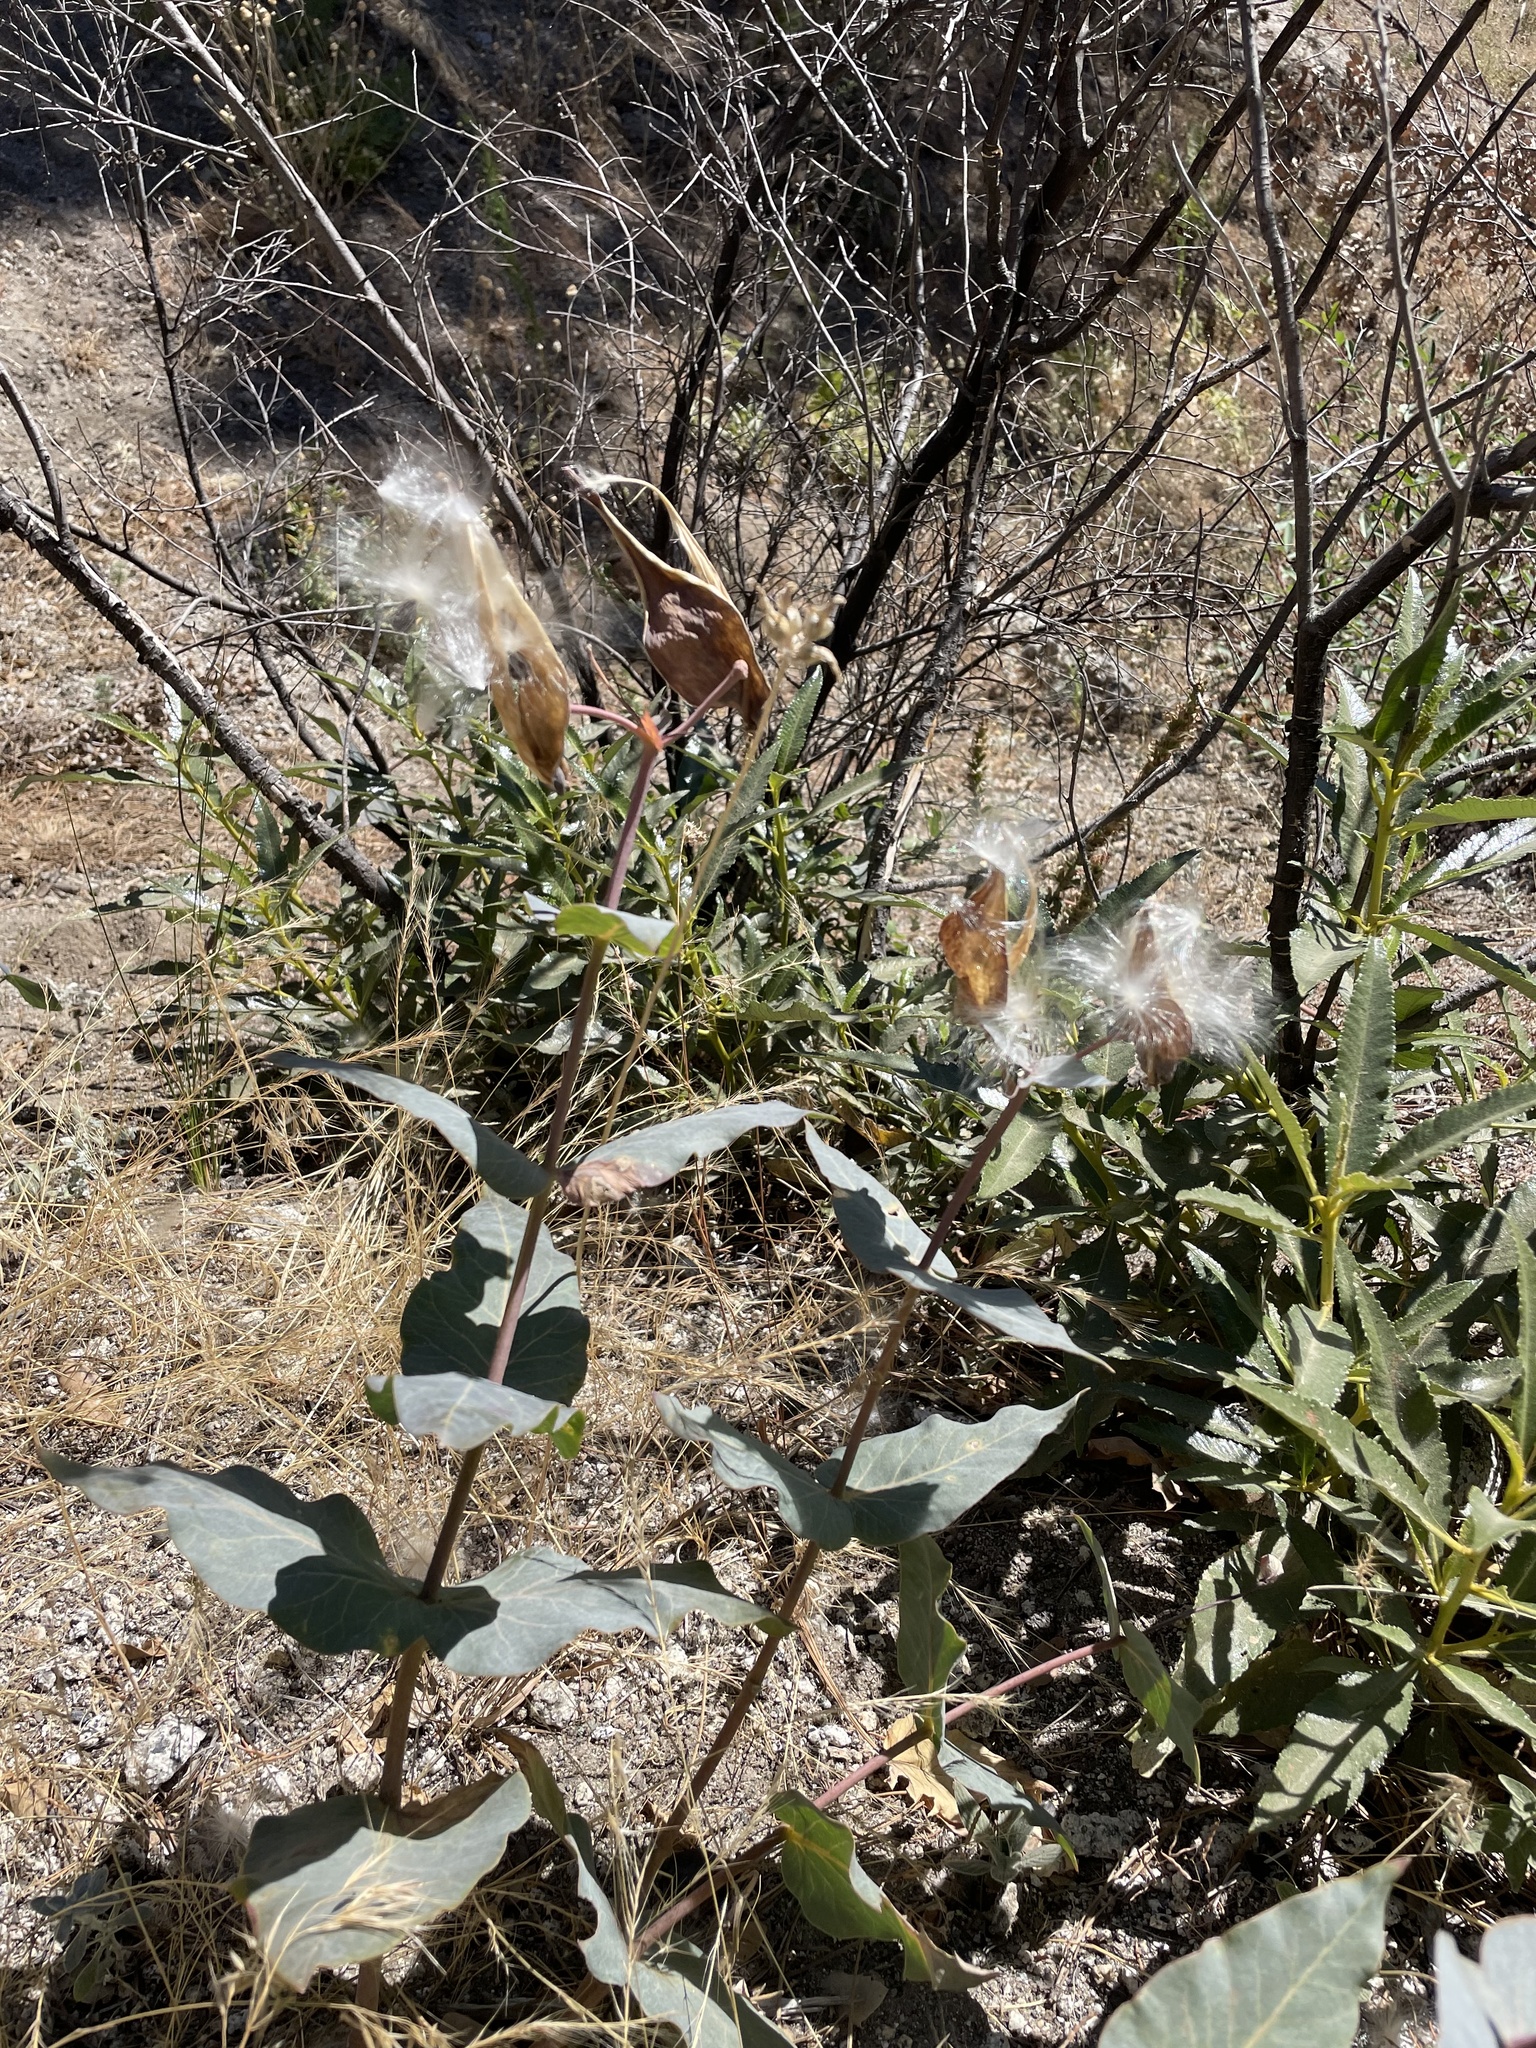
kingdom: Plantae
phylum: Tracheophyta
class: Magnoliopsida
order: Gentianales
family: Apocynaceae
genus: Asclepias
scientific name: Asclepias cordifolia
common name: Purple milkweed
